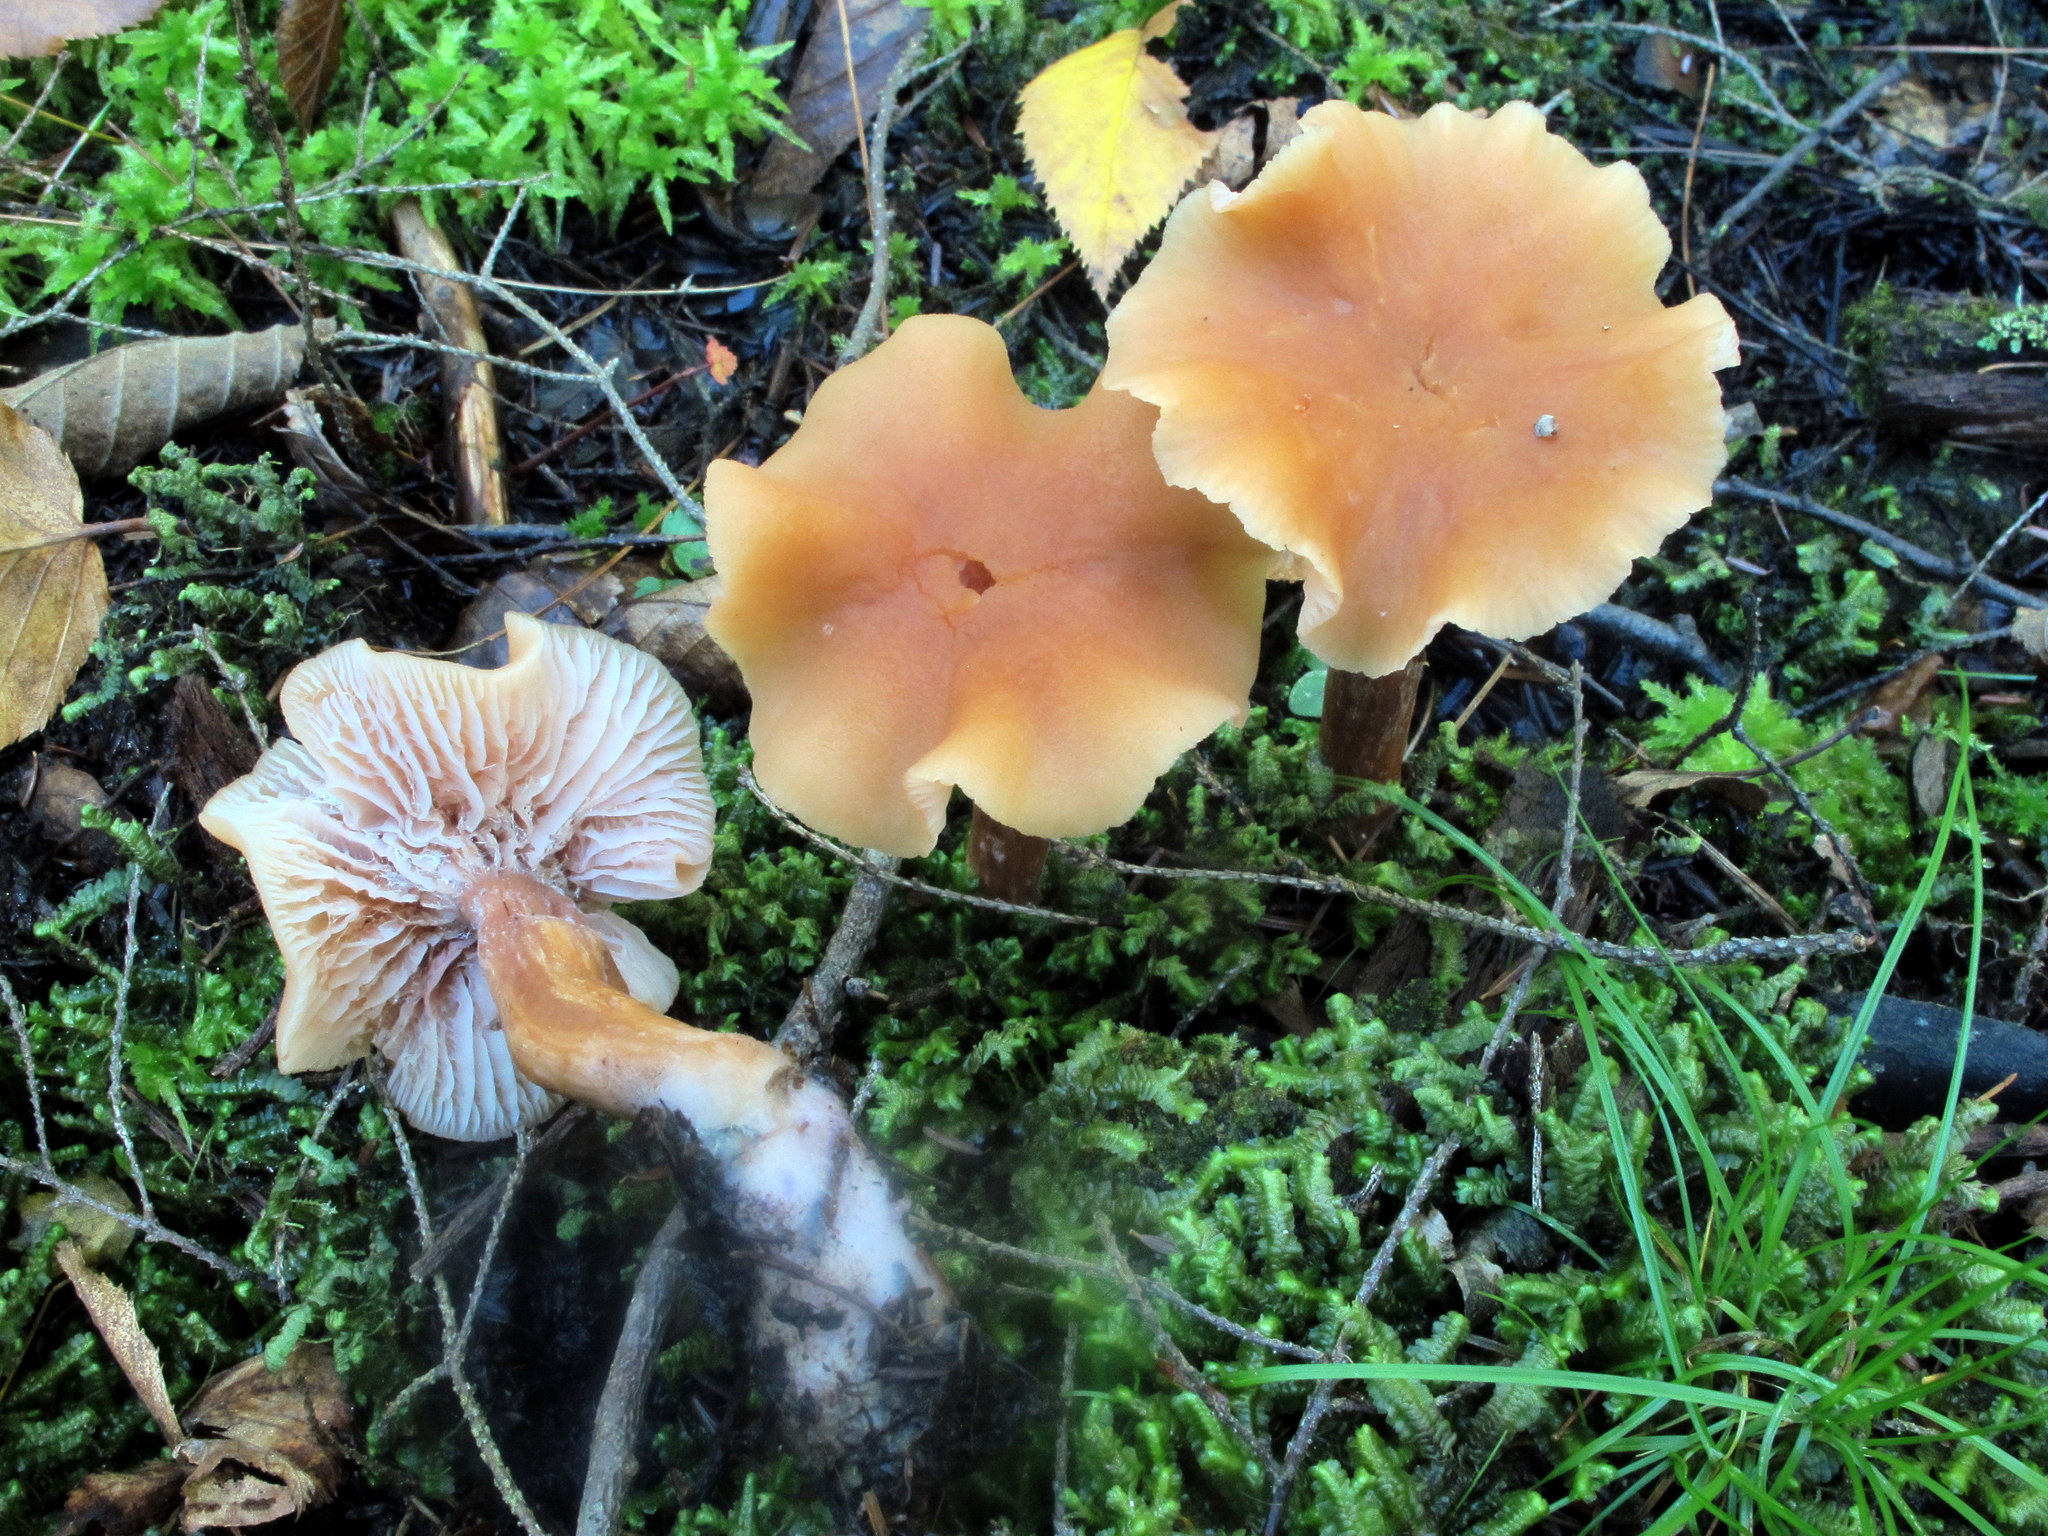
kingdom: Fungi
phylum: Basidiomycota
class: Agaricomycetes
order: Agaricales
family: Hydnangiaceae
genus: Laccaria
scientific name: Laccaria bicolor
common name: Bicoloured deceiver
